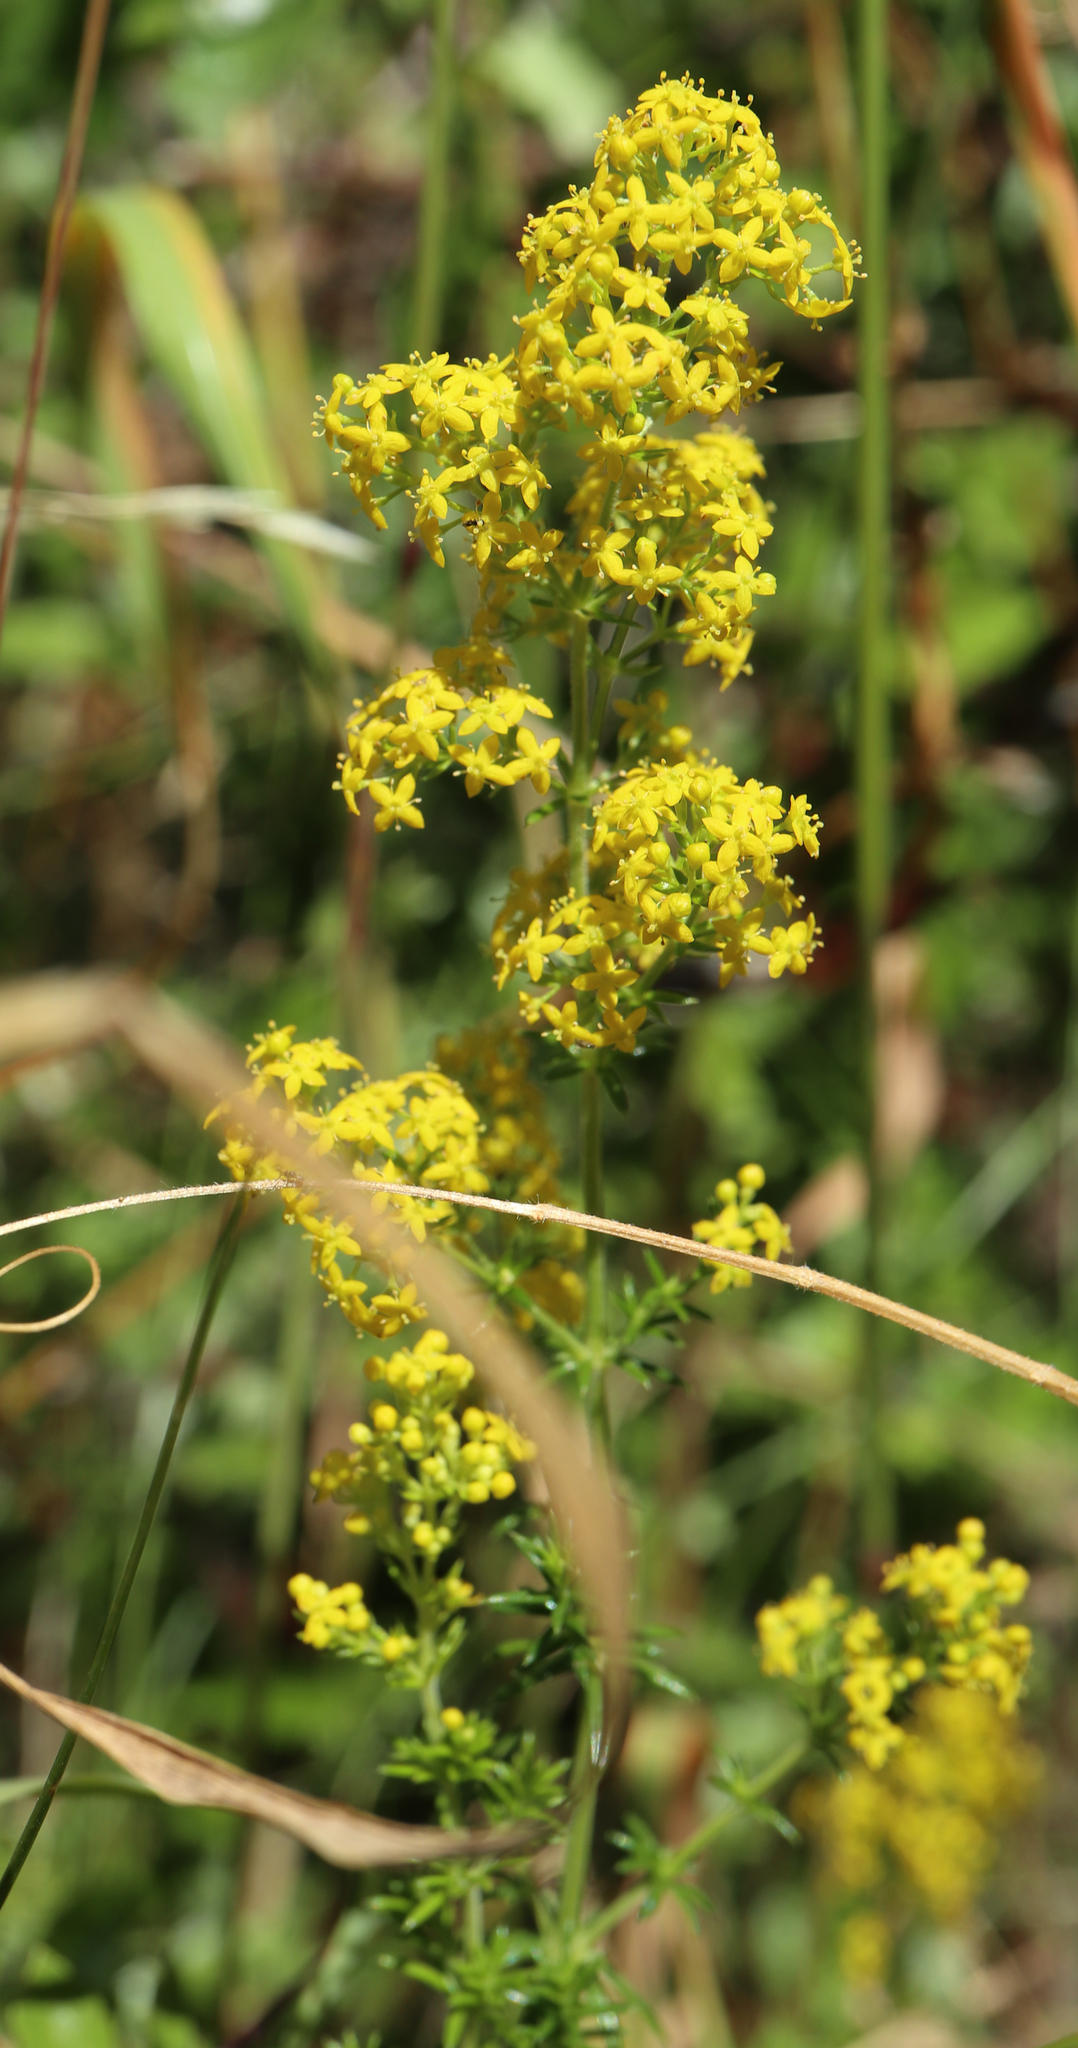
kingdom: Plantae
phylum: Tracheophyta
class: Magnoliopsida
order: Gentianales
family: Rubiaceae
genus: Galium
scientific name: Galium verum
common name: Lady's bedstraw
